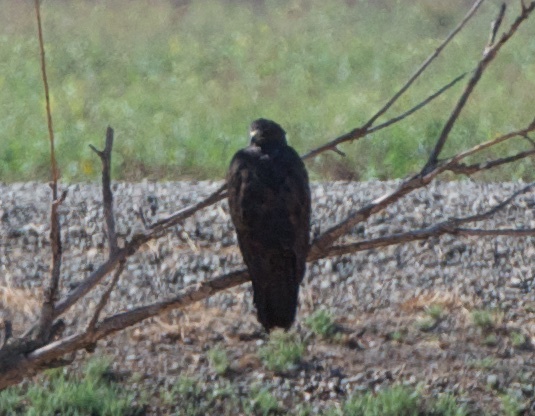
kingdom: Animalia
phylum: Chordata
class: Aves
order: Accipitriformes
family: Accipitridae
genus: Buteo
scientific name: Buteo swainsoni
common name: Swainson's hawk
